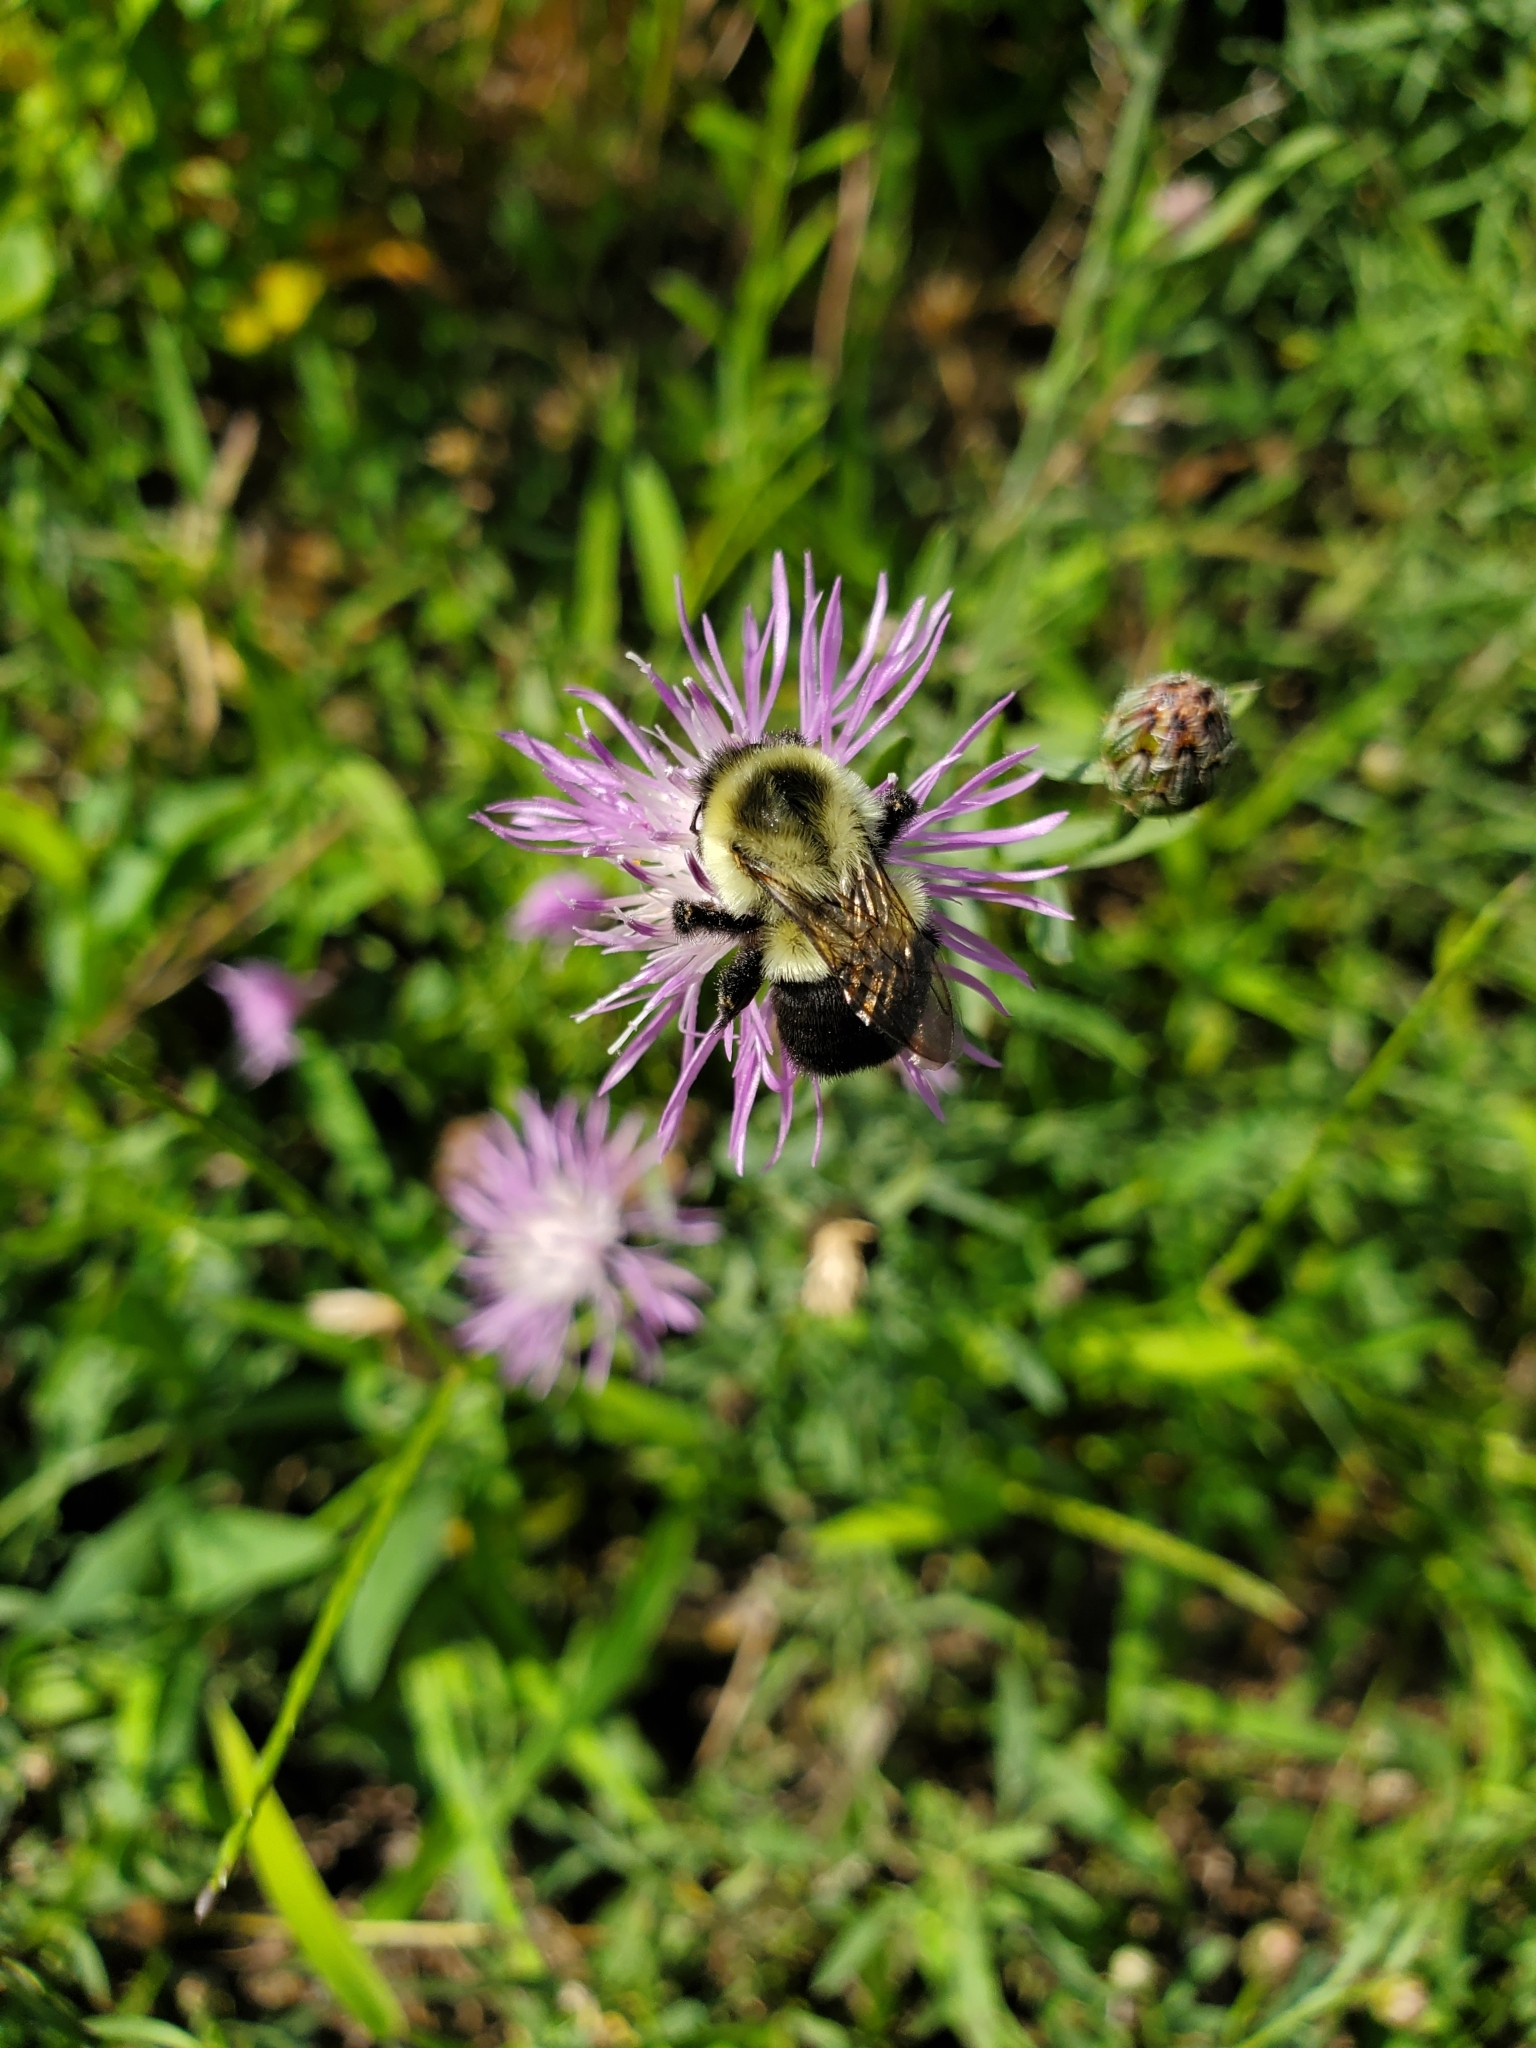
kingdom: Animalia
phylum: Arthropoda
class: Insecta
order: Hymenoptera
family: Apidae
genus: Bombus
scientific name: Bombus impatiens
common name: Common eastern bumble bee
